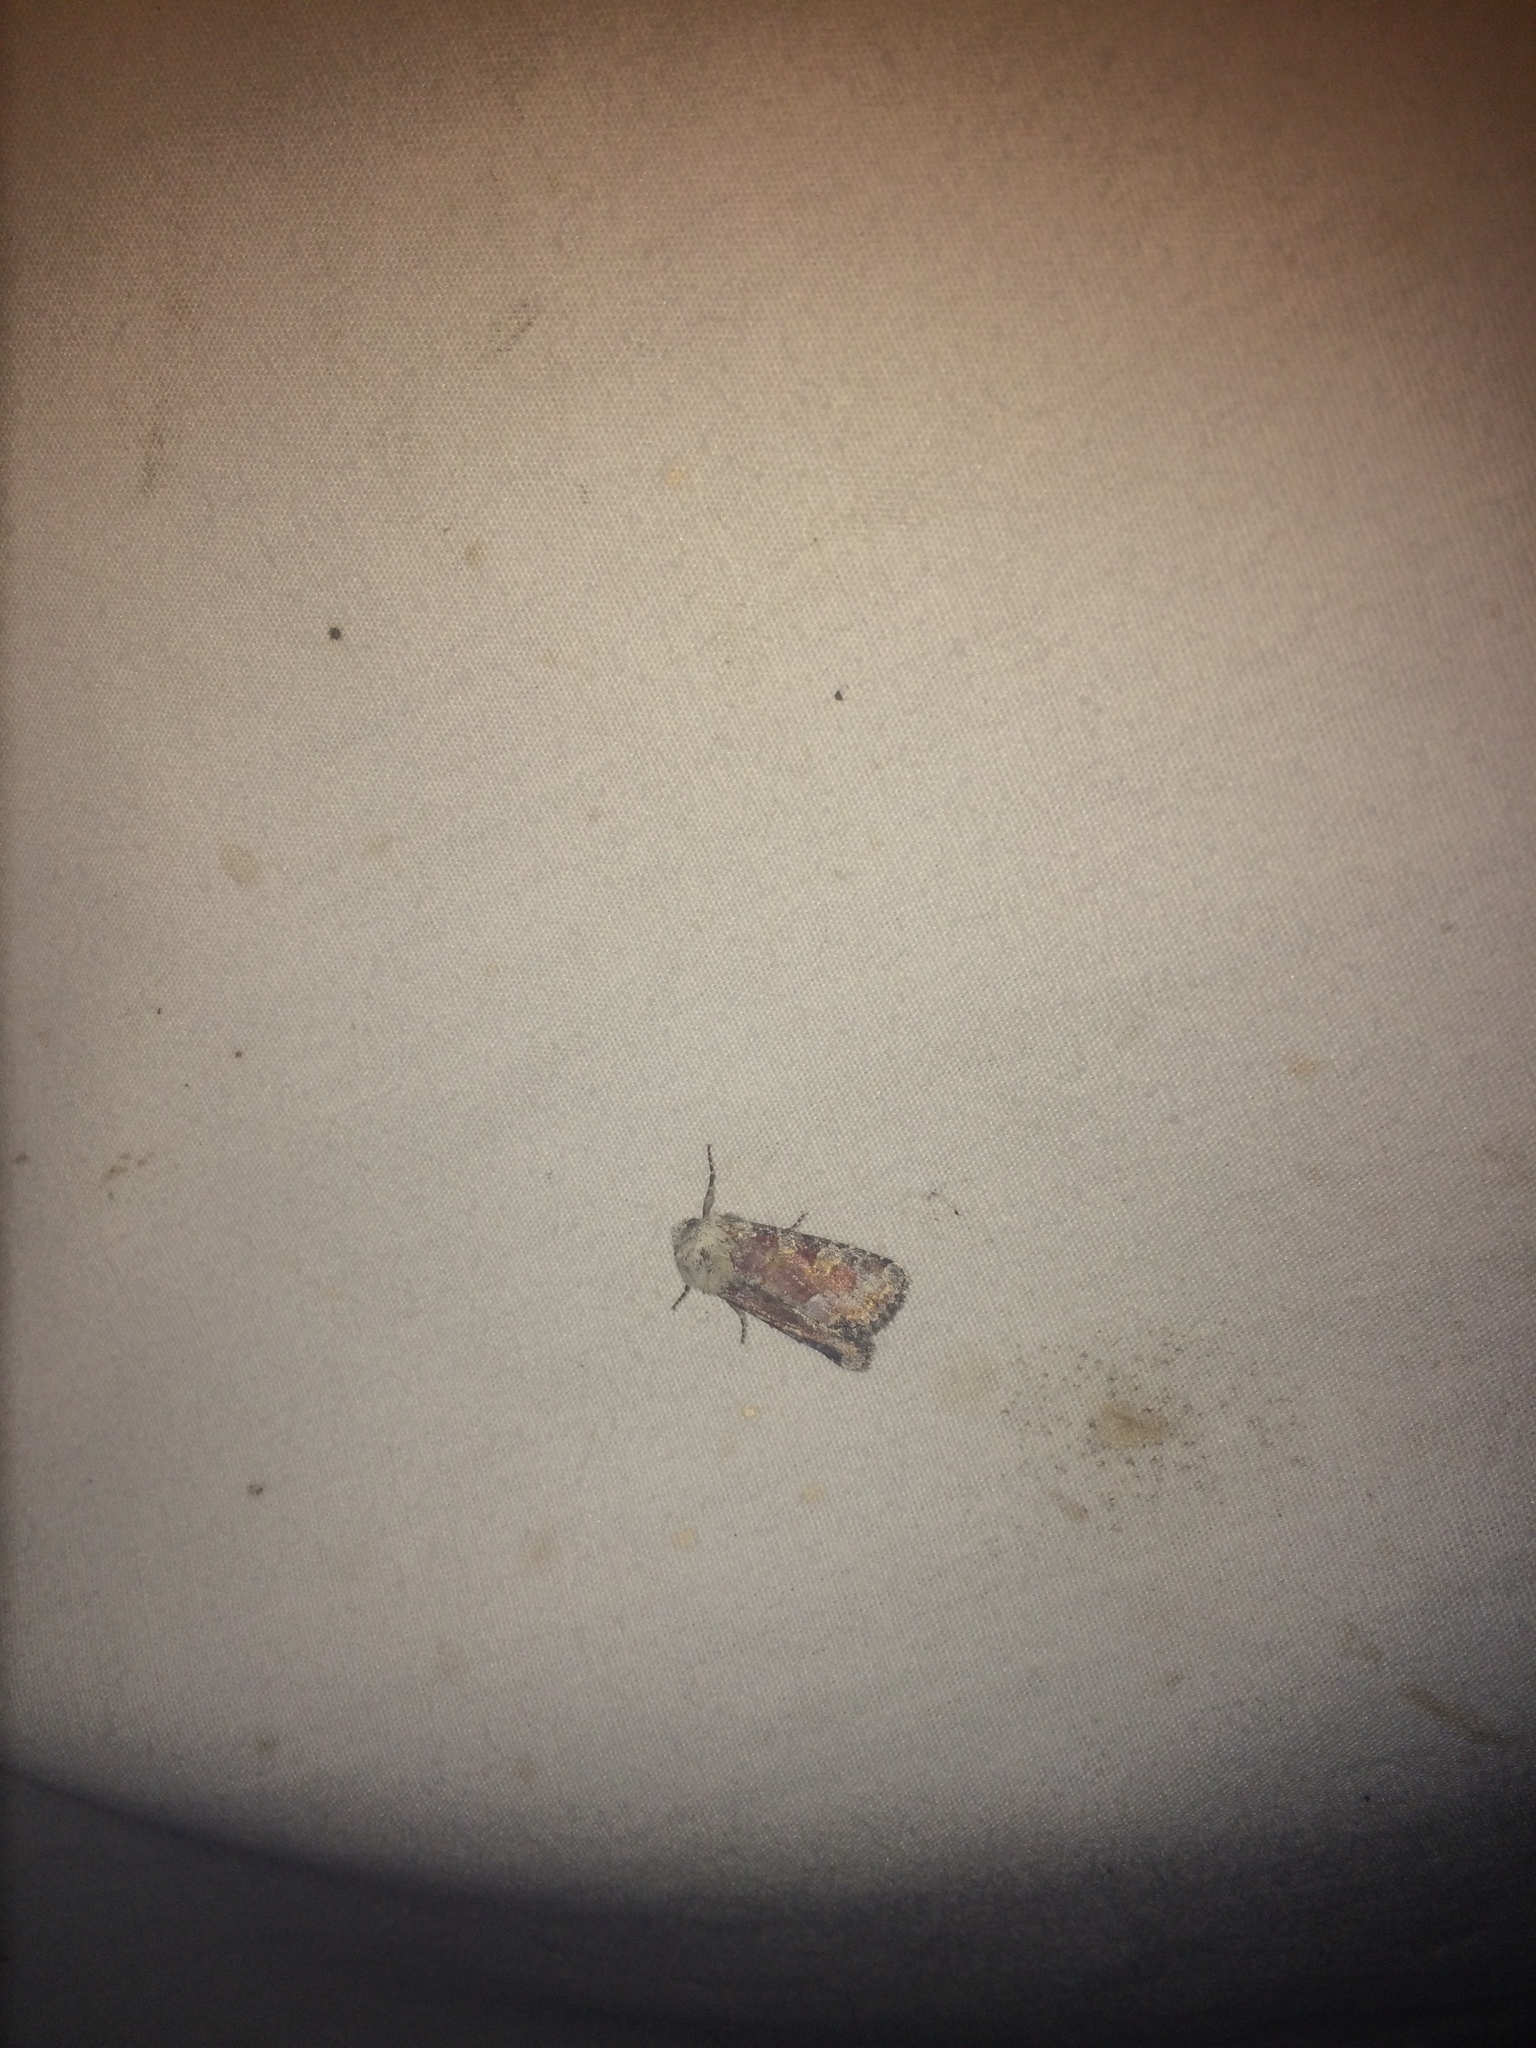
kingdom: Animalia
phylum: Arthropoda
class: Insecta
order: Lepidoptera
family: Noctuidae
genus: Oligia
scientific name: Oligia bridghamii
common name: Bridgham's brocade moth
